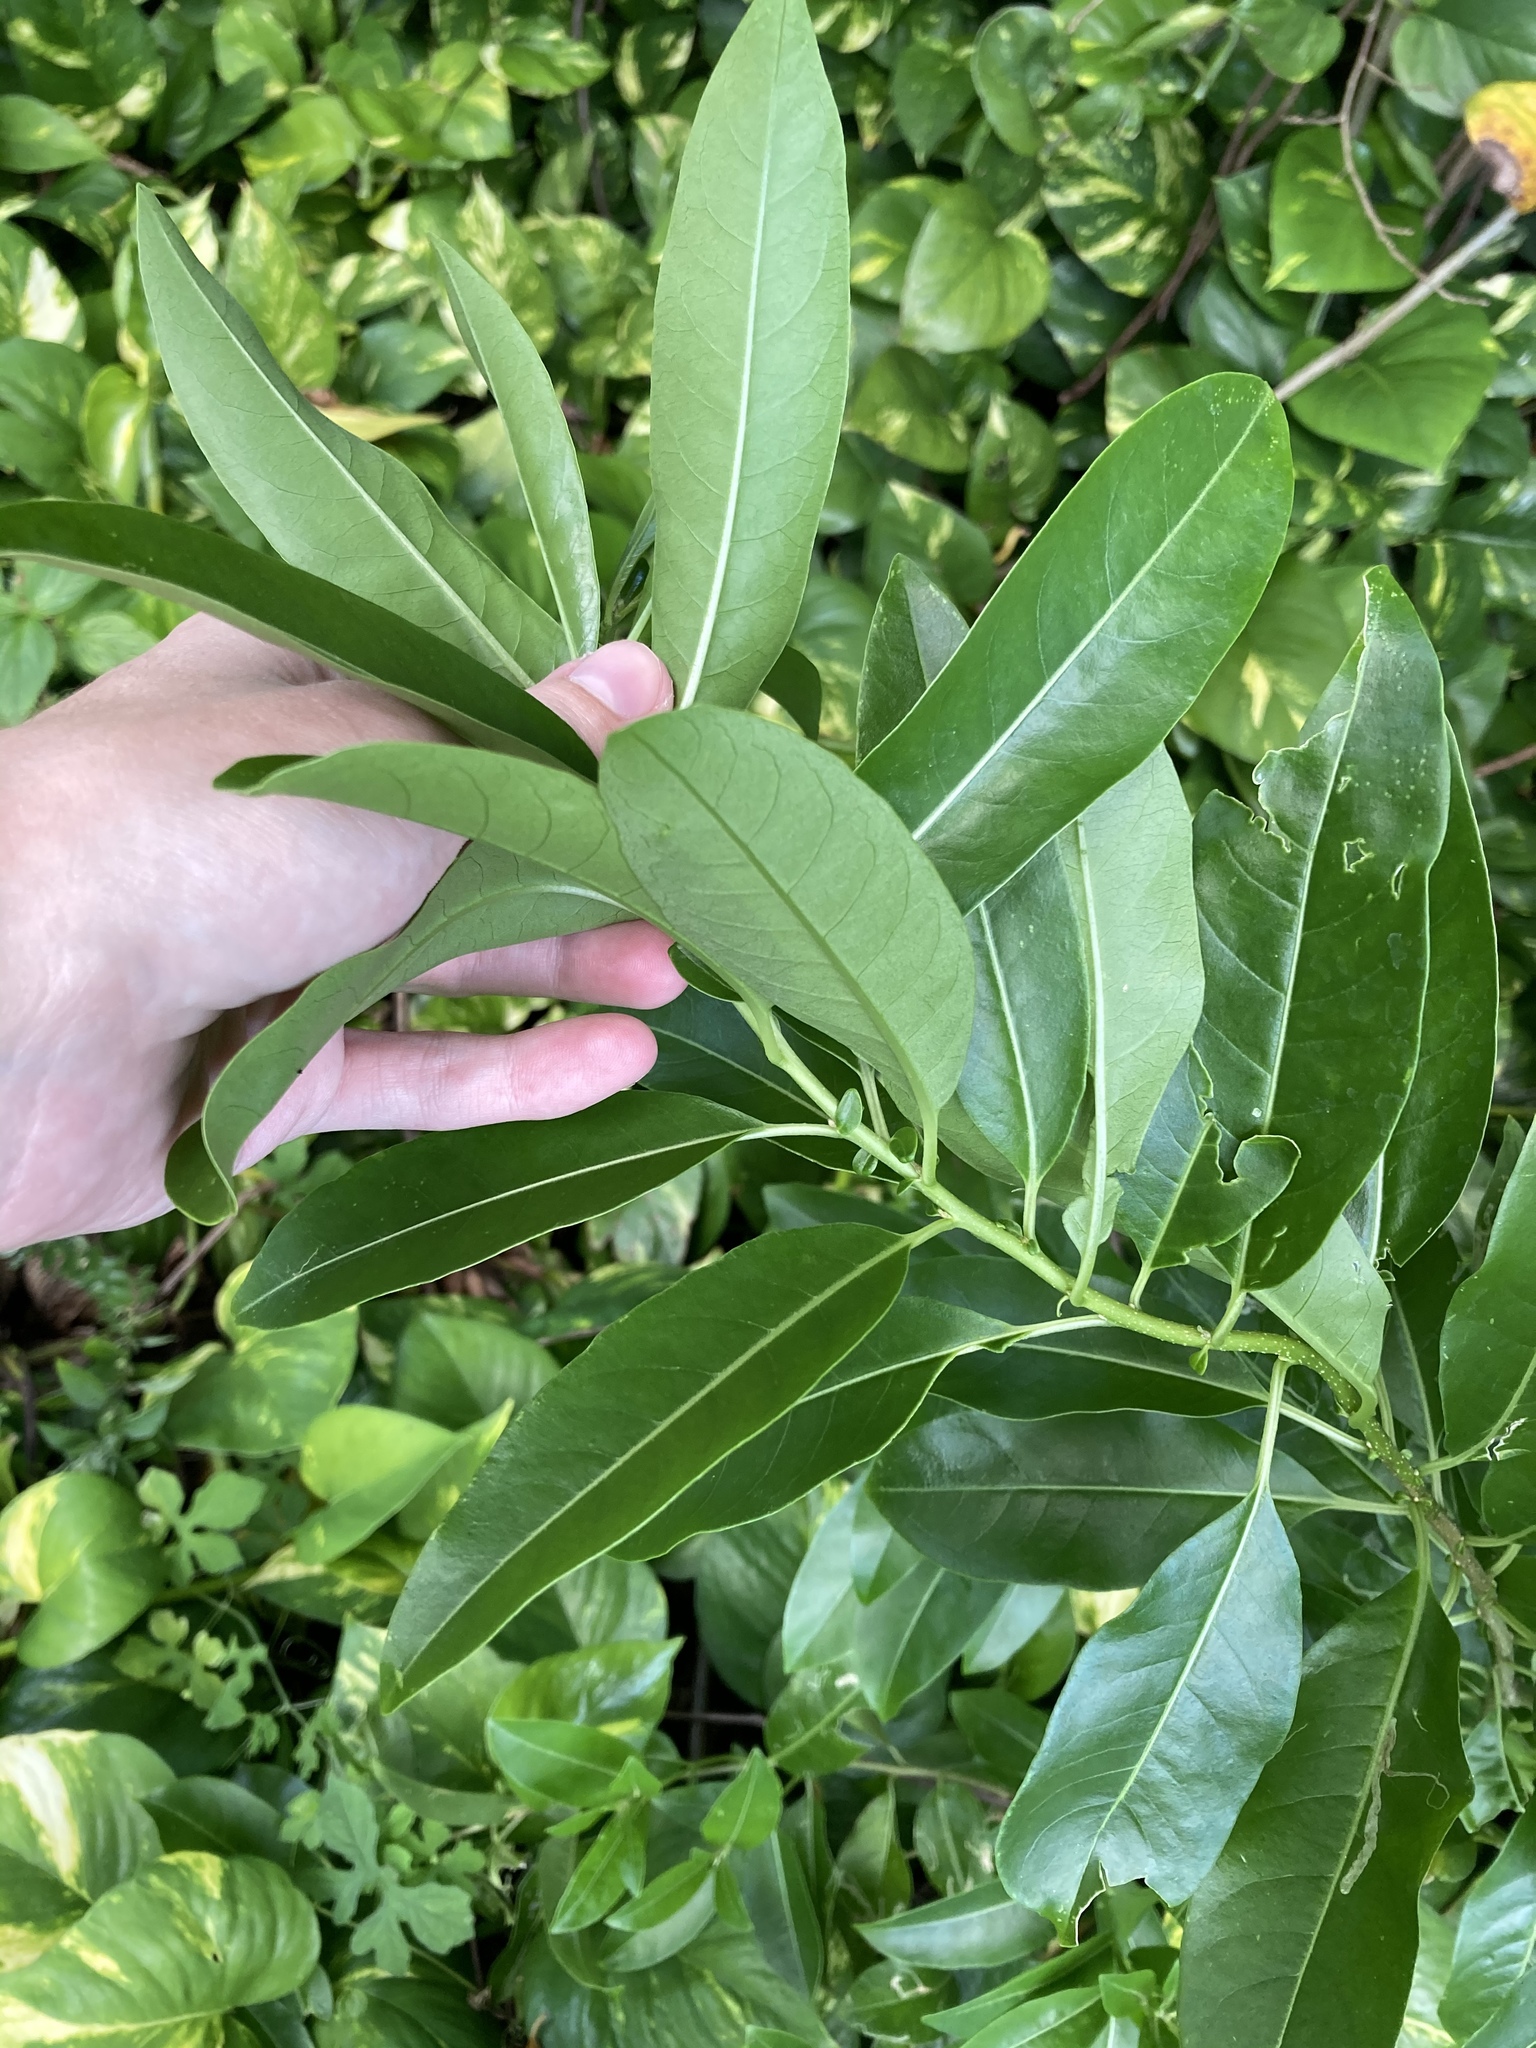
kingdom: Plantae
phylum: Tracheophyta
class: Magnoliopsida
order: Solanales
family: Solanaceae
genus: Cestrum
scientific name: Cestrum diurnum
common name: Day jessamine
